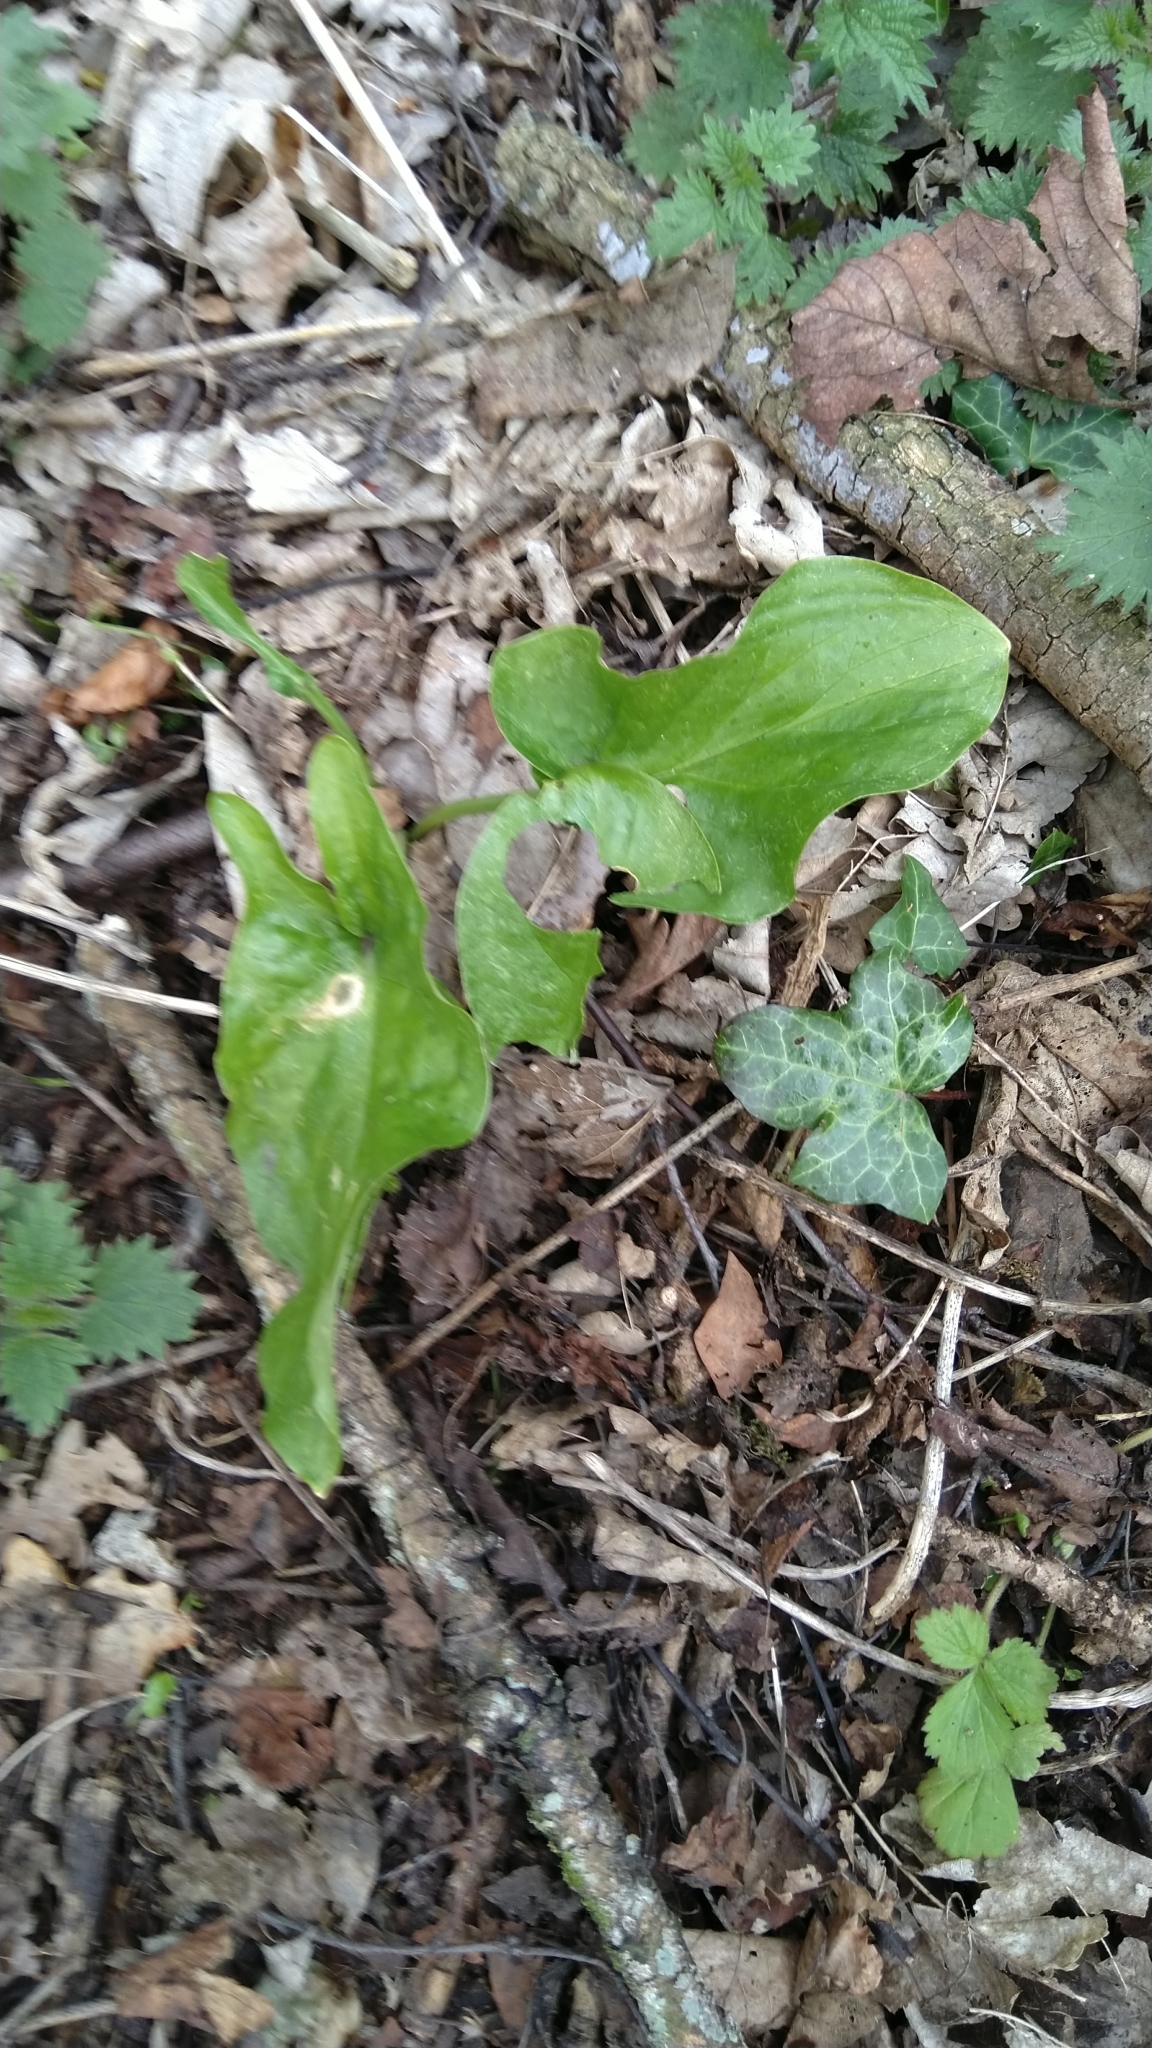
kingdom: Plantae
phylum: Tracheophyta
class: Liliopsida
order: Alismatales
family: Araceae
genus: Arum
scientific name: Arum maculatum
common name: Lords-and-ladies
